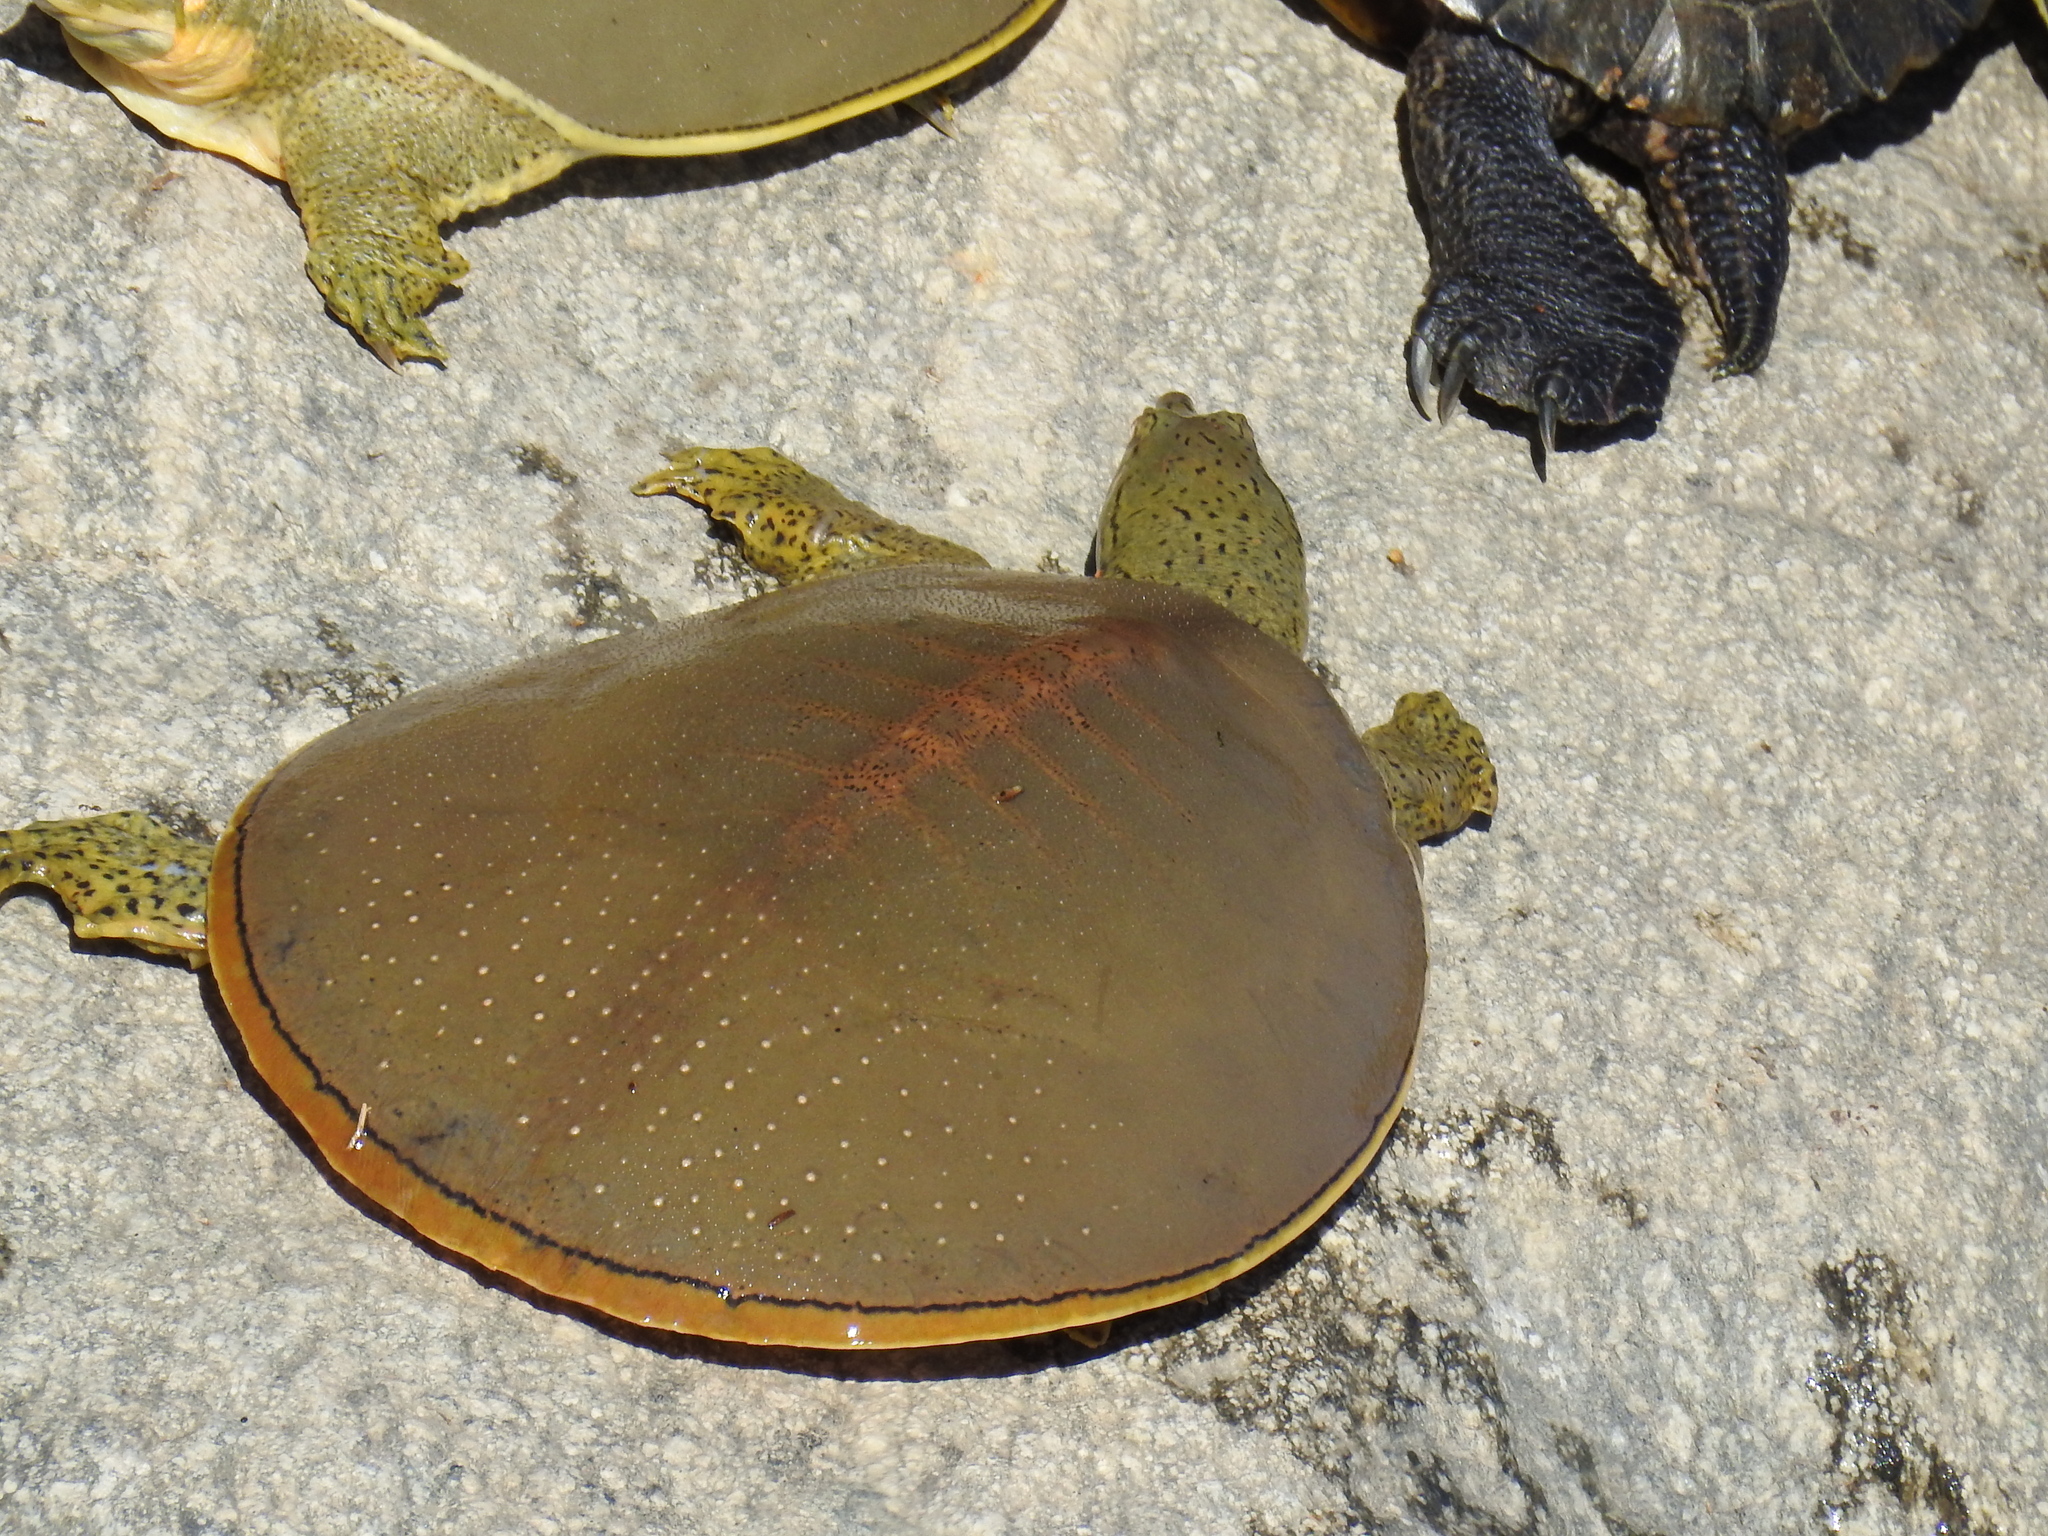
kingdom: Animalia
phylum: Chordata
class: Testudines
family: Trionychidae
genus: Apalone
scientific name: Apalone spinifera
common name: Spiny softshell turtle
